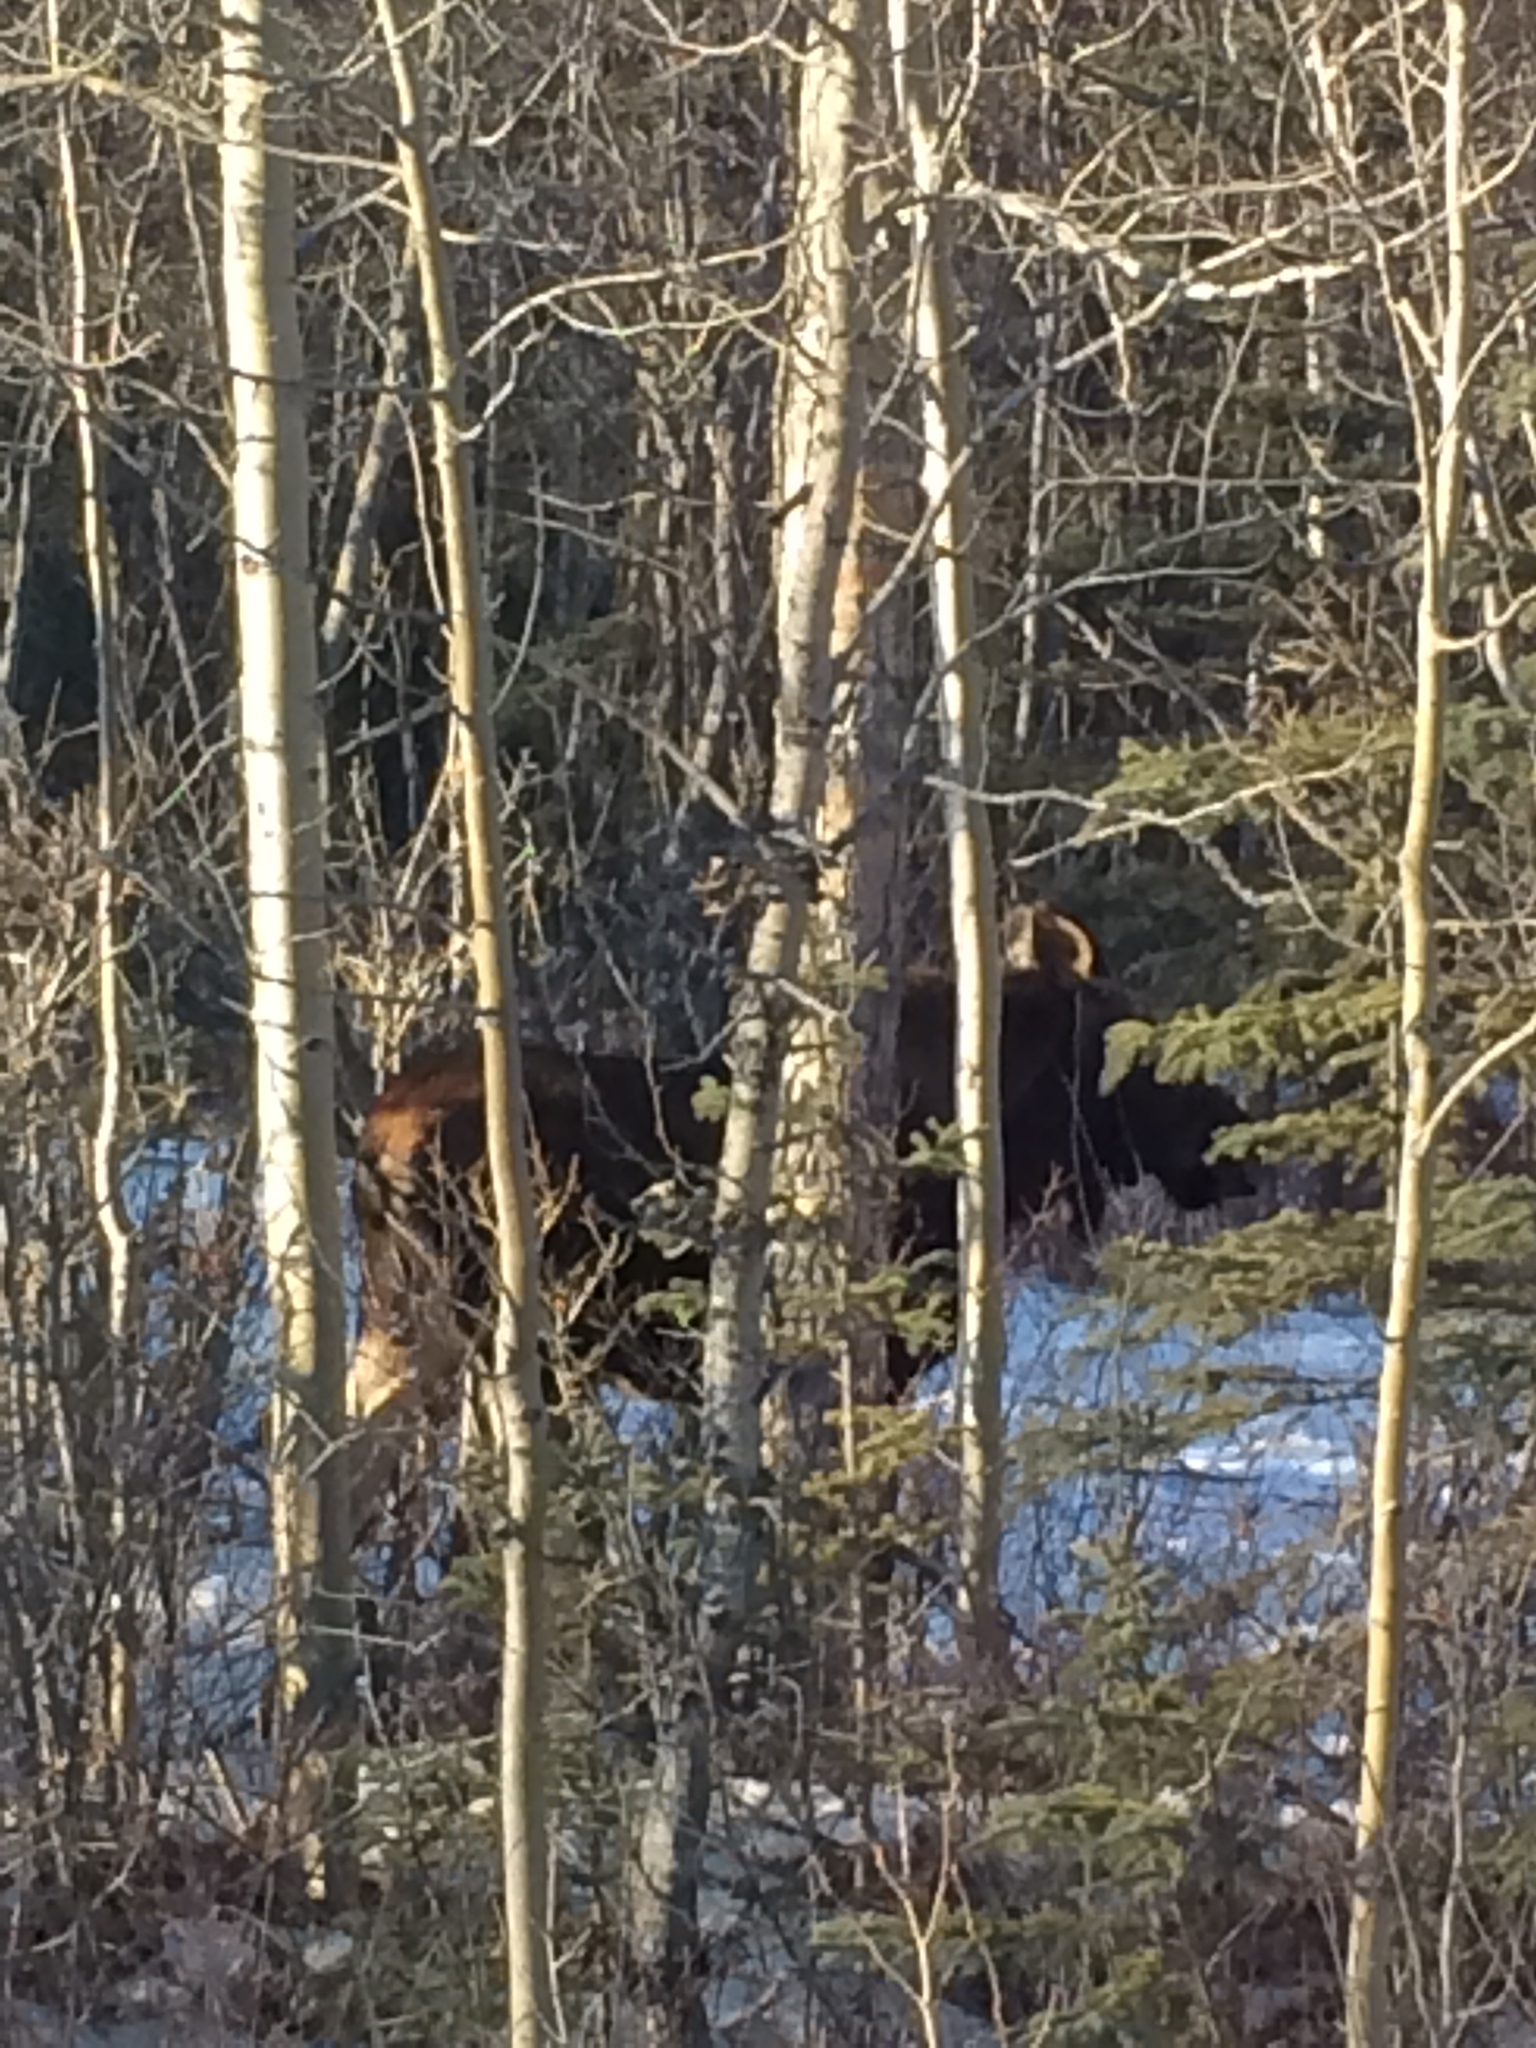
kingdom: Animalia
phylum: Chordata
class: Mammalia
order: Artiodactyla
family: Cervidae
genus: Alces
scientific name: Alces alces
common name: Moose
